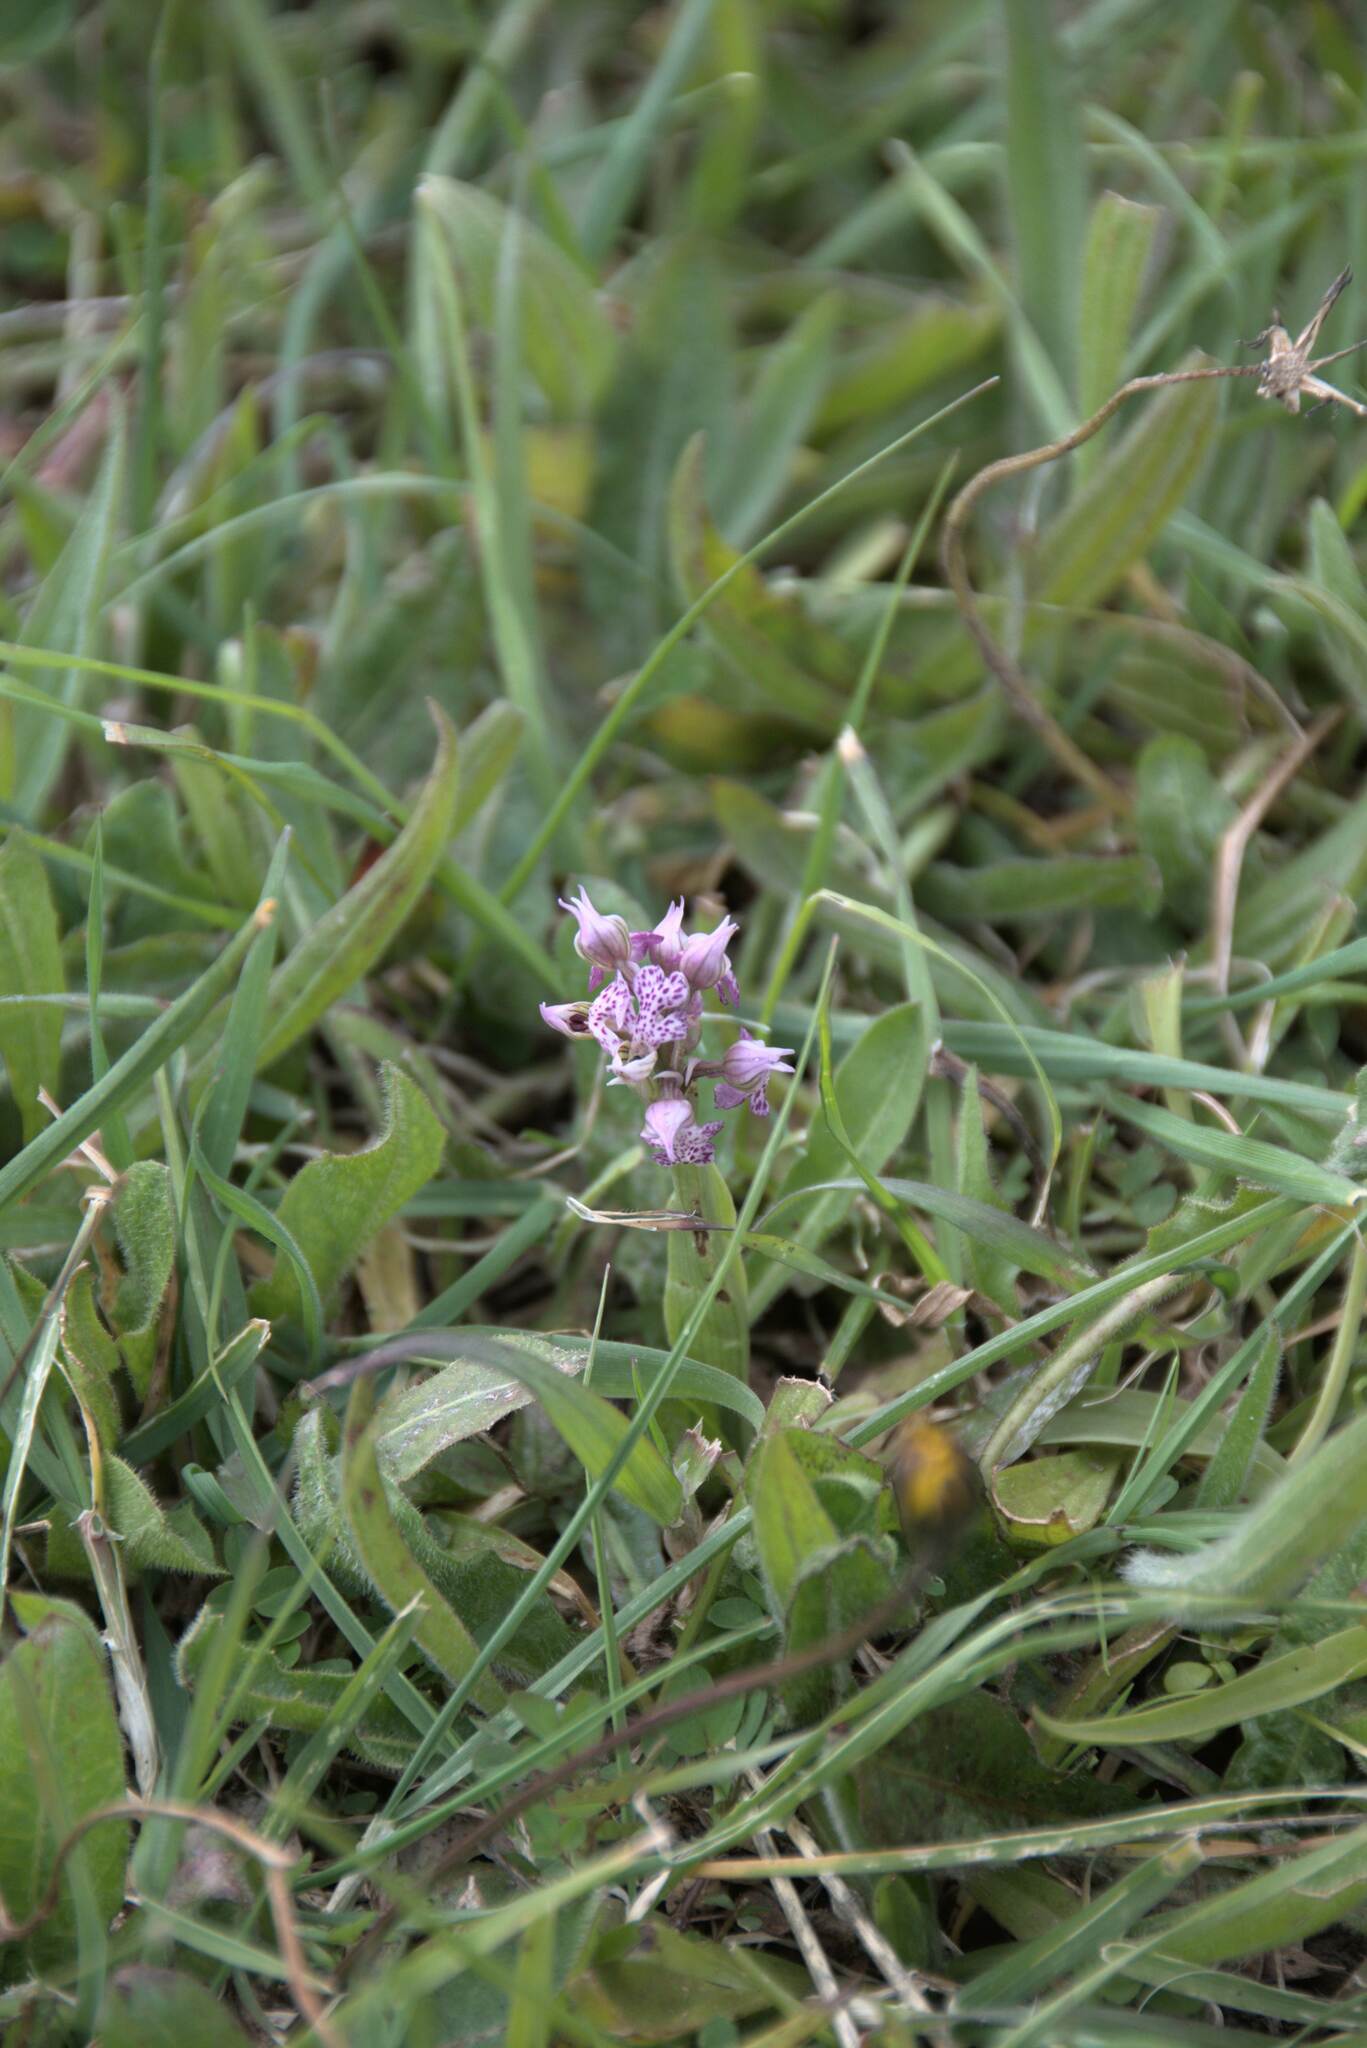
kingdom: Plantae
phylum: Tracheophyta
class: Liliopsida
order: Asparagales
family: Orchidaceae
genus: Neotinea
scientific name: Neotinea lactea
